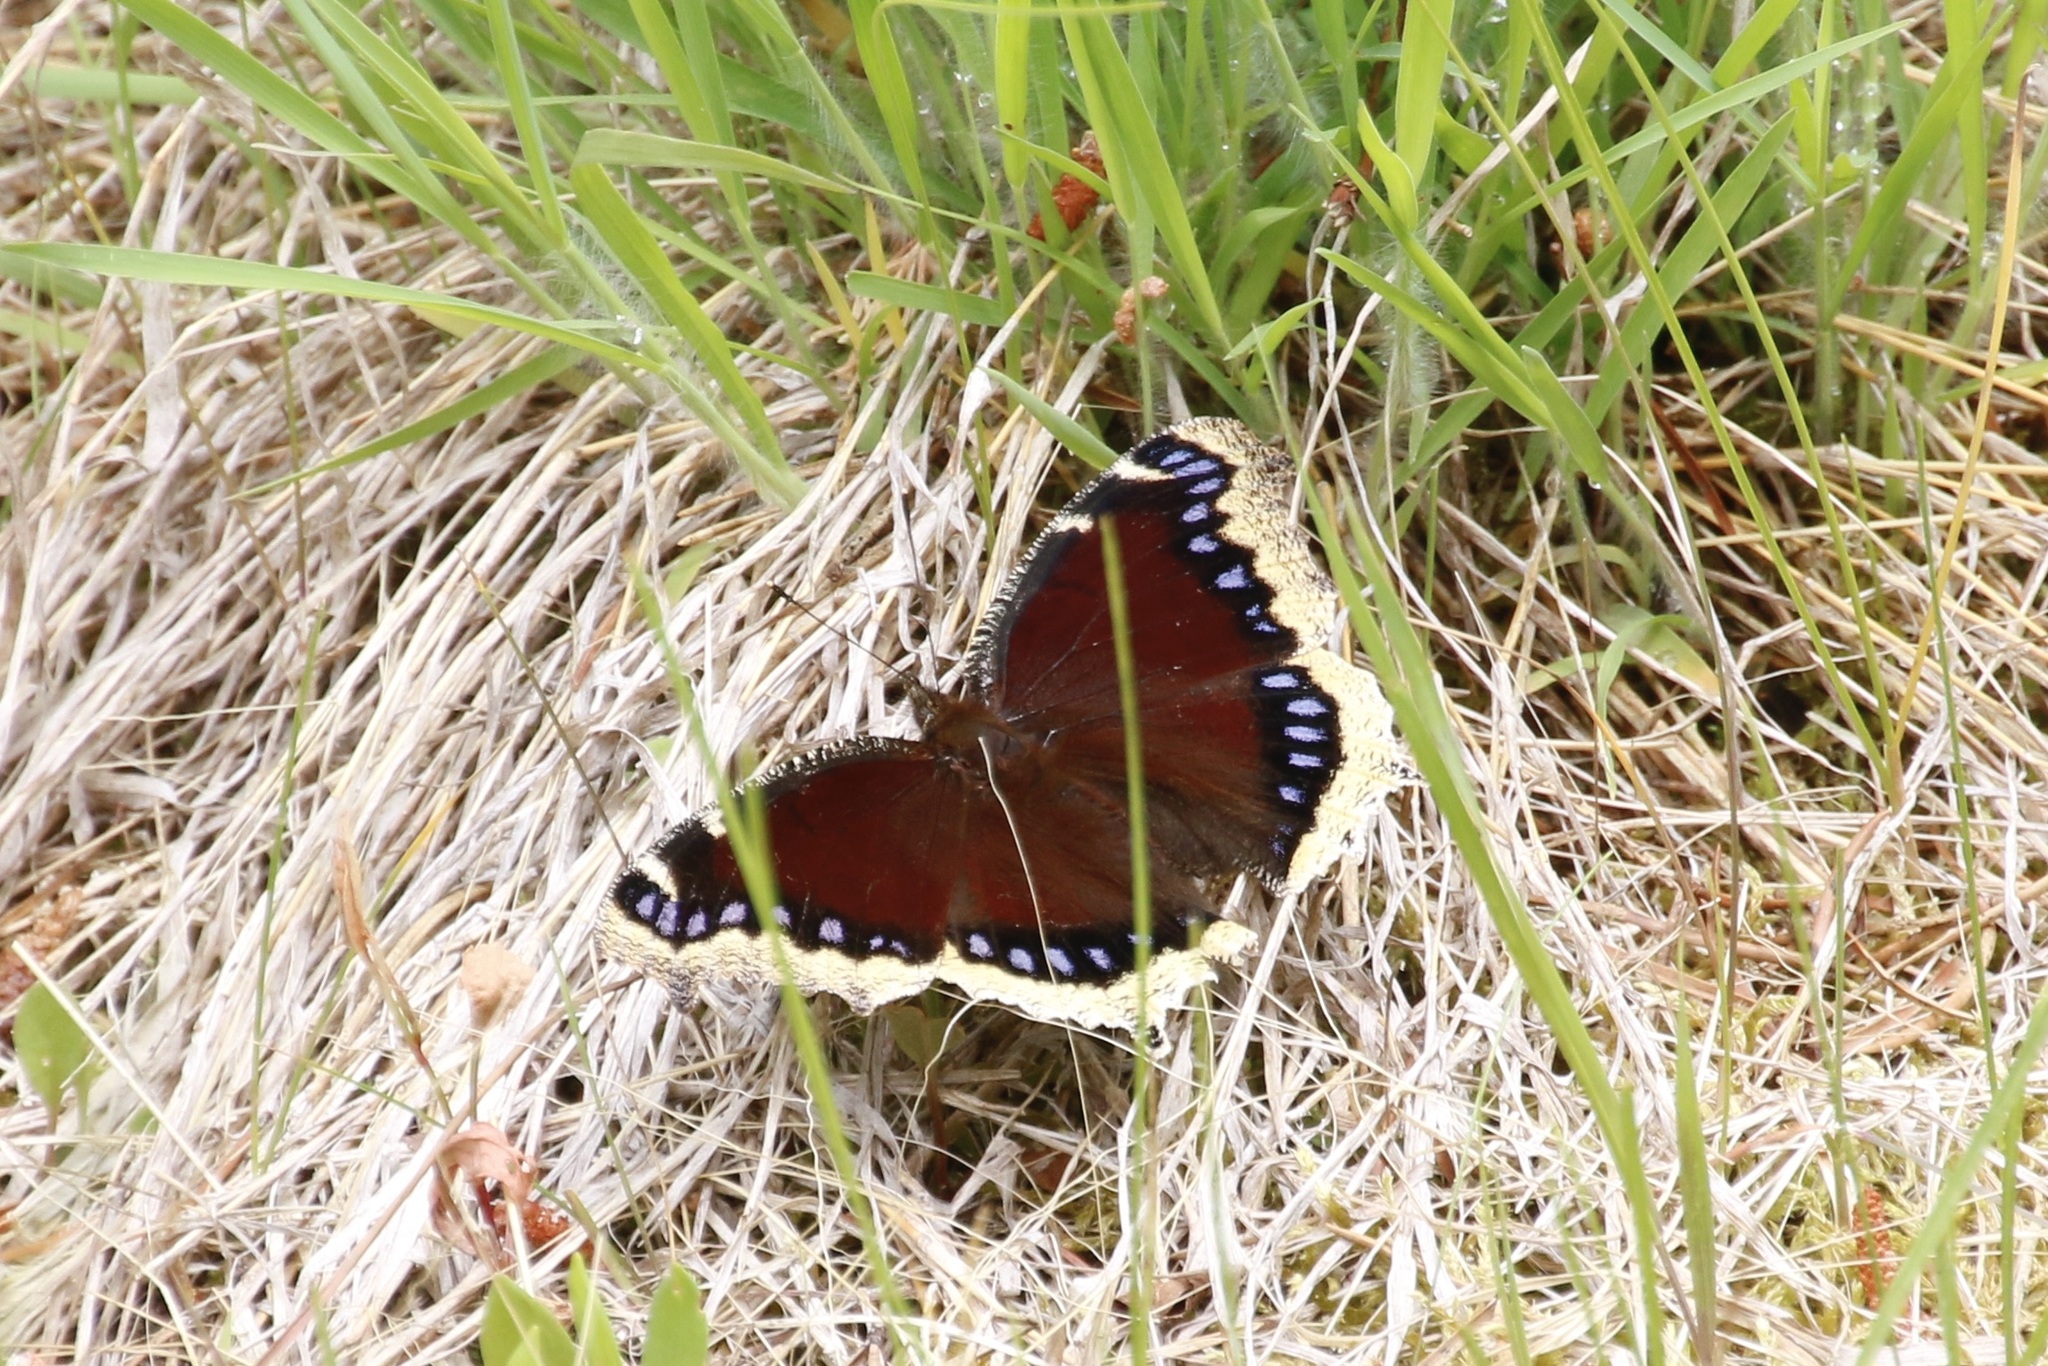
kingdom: Animalia
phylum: Arthropoda
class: Insecta
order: Lepidoptera
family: Nymphalidae
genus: Nymphalis
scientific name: Nymphalis antiopa
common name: Camberwell beauty
